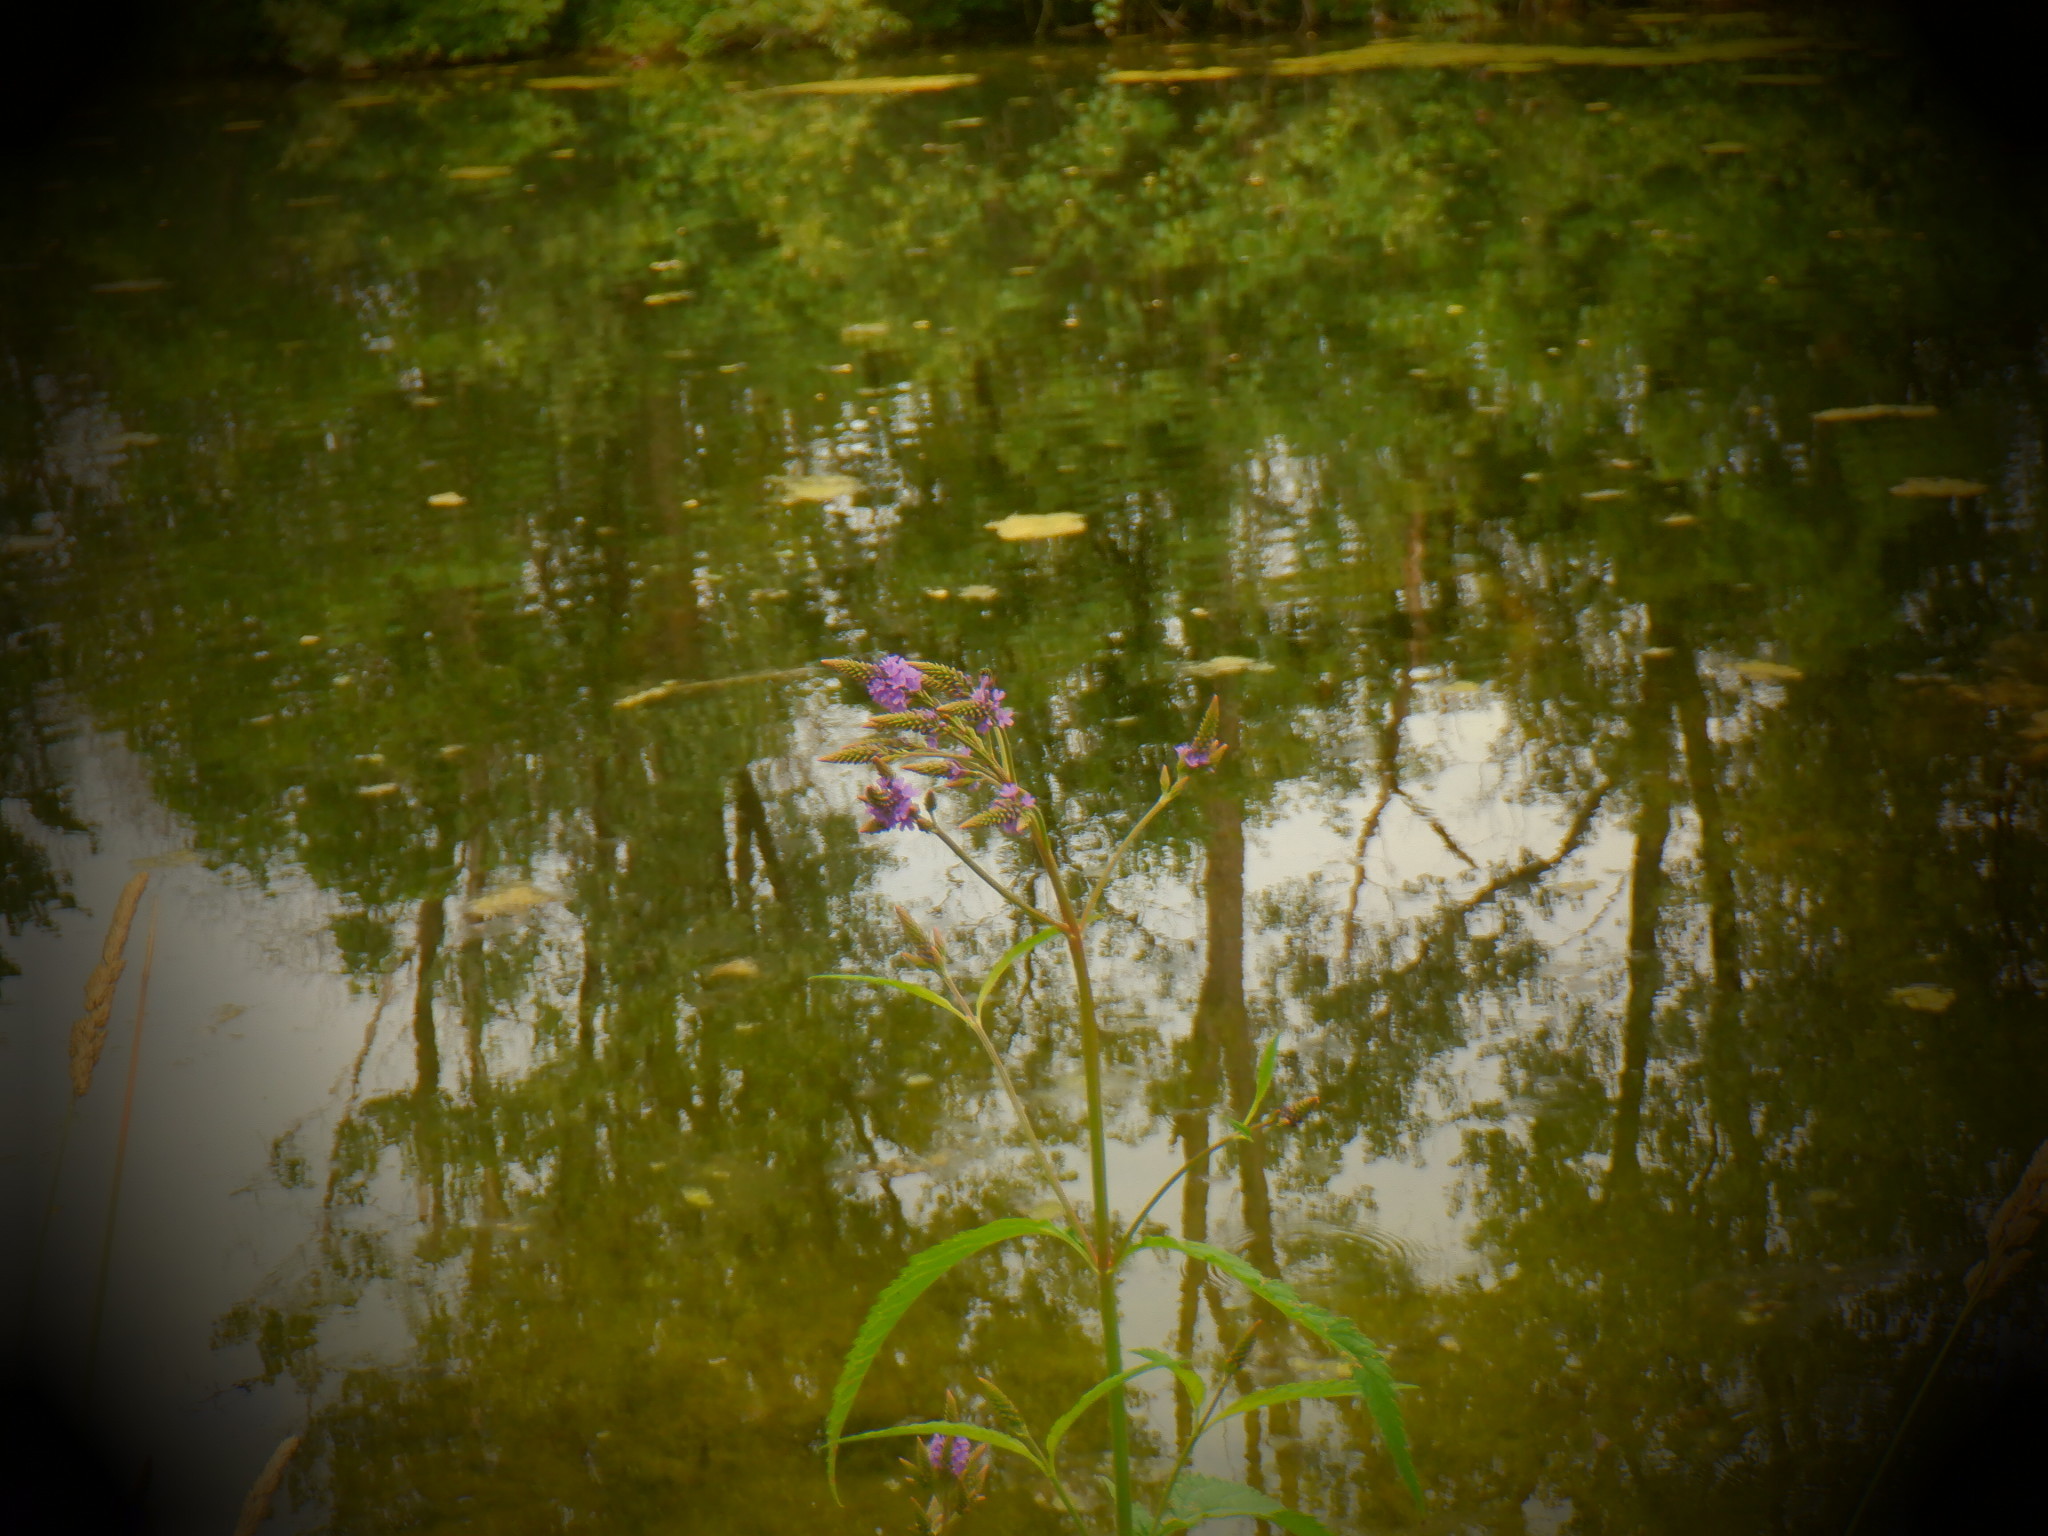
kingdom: Plantae
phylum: Tracheophyta
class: Magnoliopsida
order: Lamiales
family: Verbenaceae
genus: Verbena
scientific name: Verbena hastata
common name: American blue vervain
